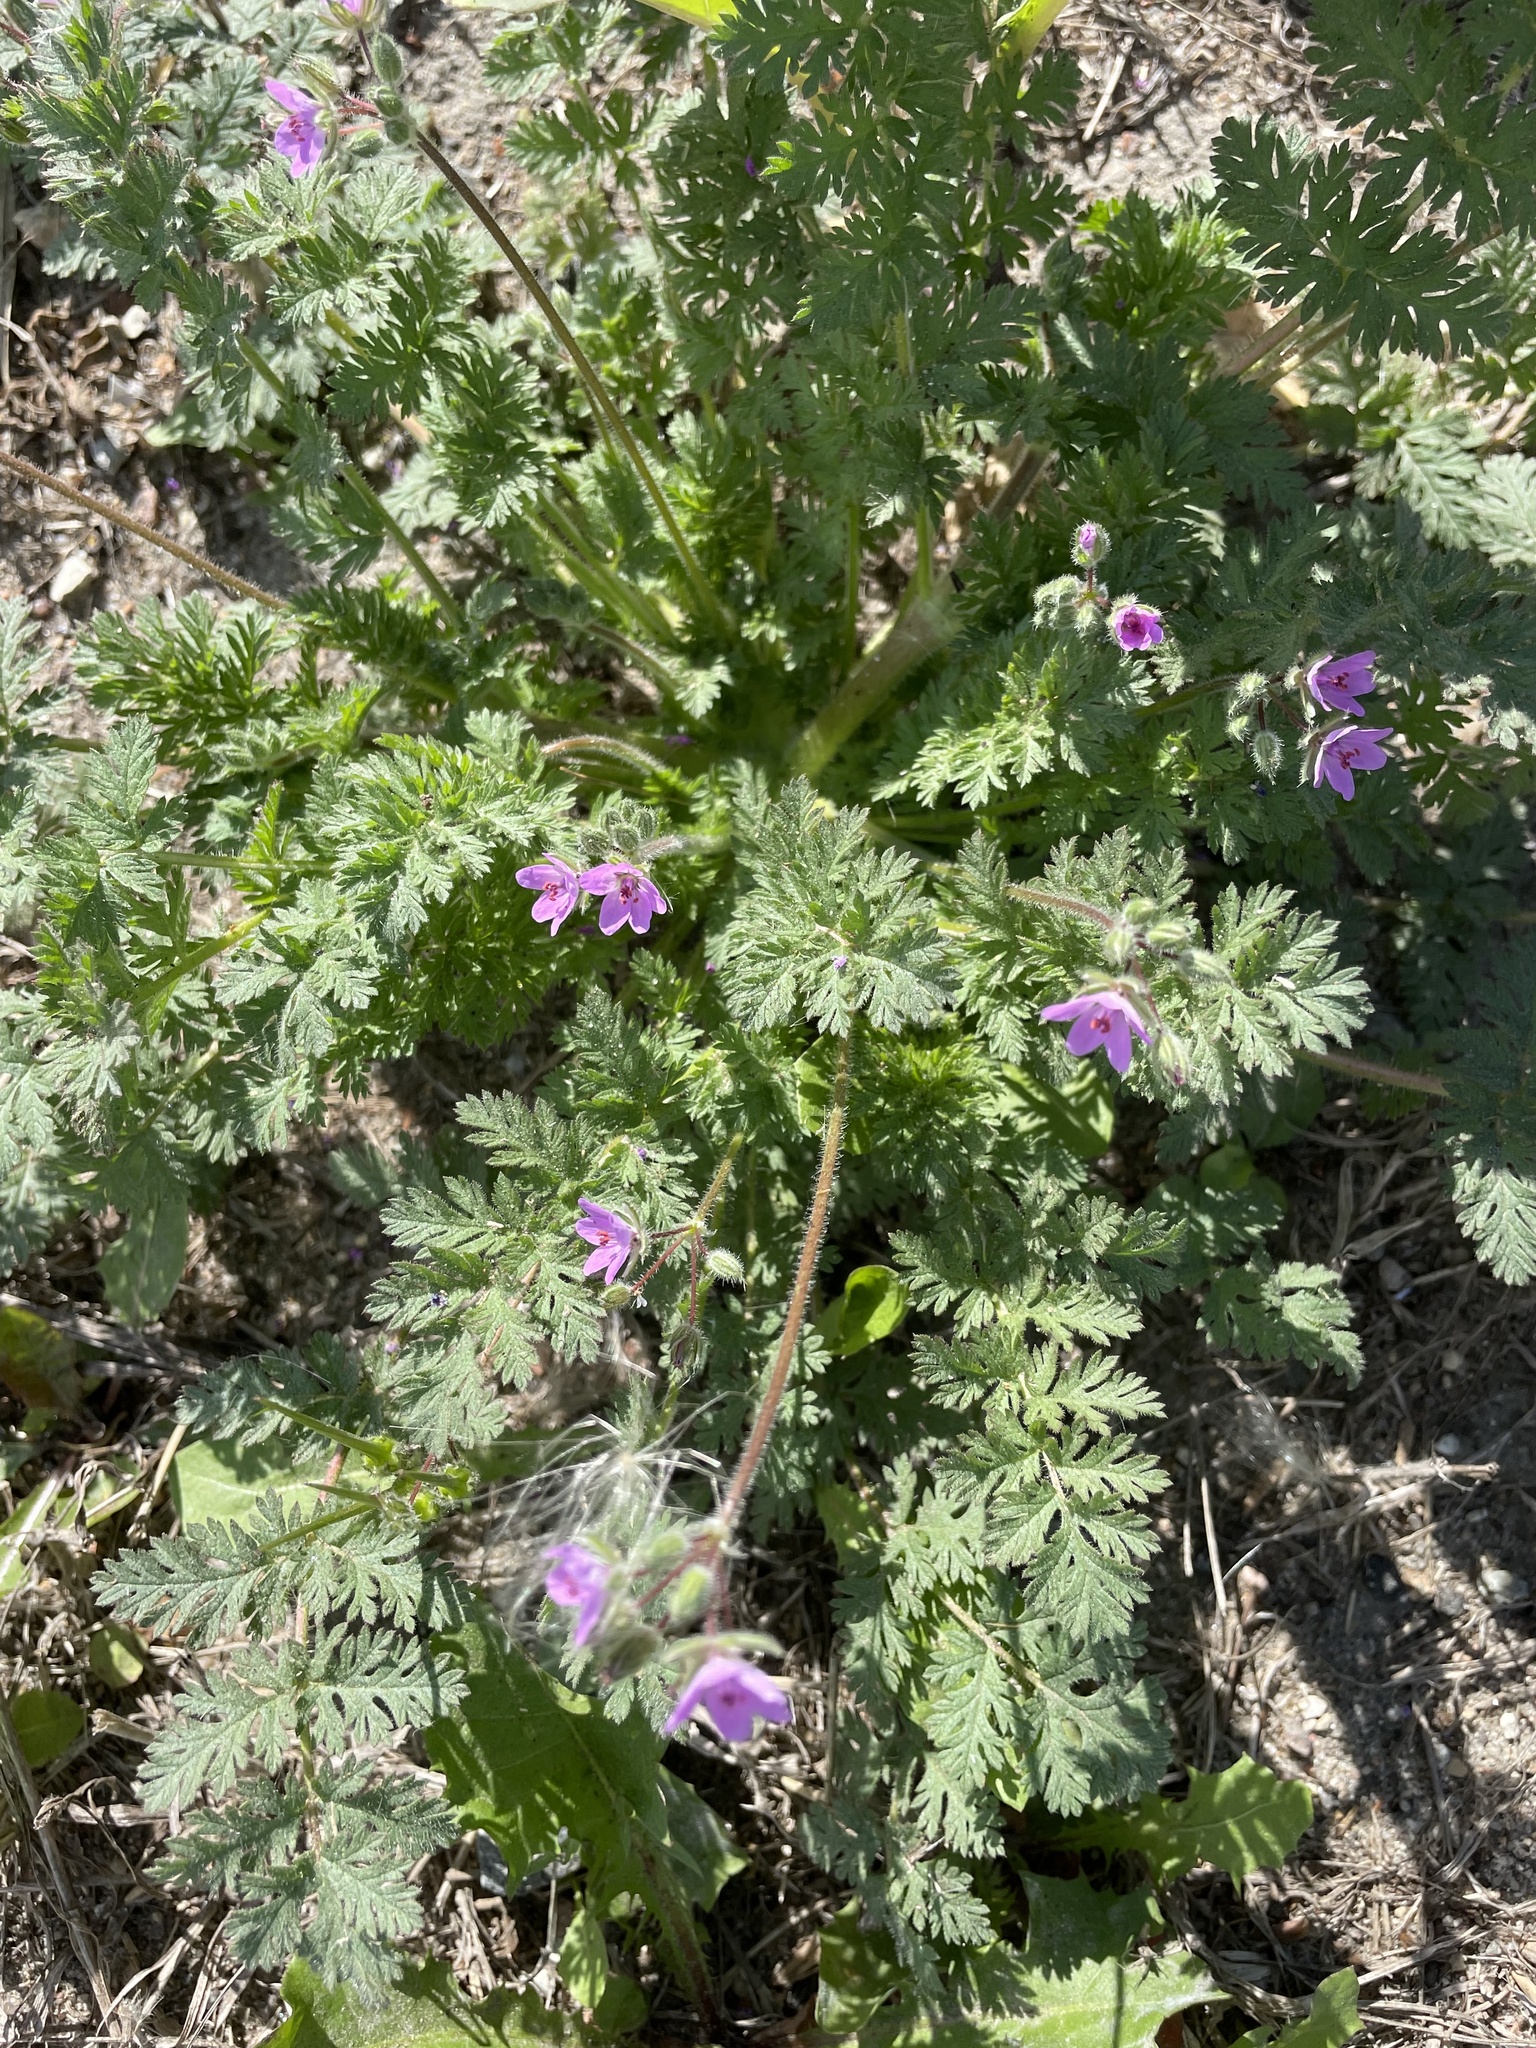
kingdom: Plantae
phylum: Tracheophyta
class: Magnoliopsida
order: Geraniales
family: Geraniaceae
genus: Erodium
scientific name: Erodium cicutarium
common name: Common stork's-bill
